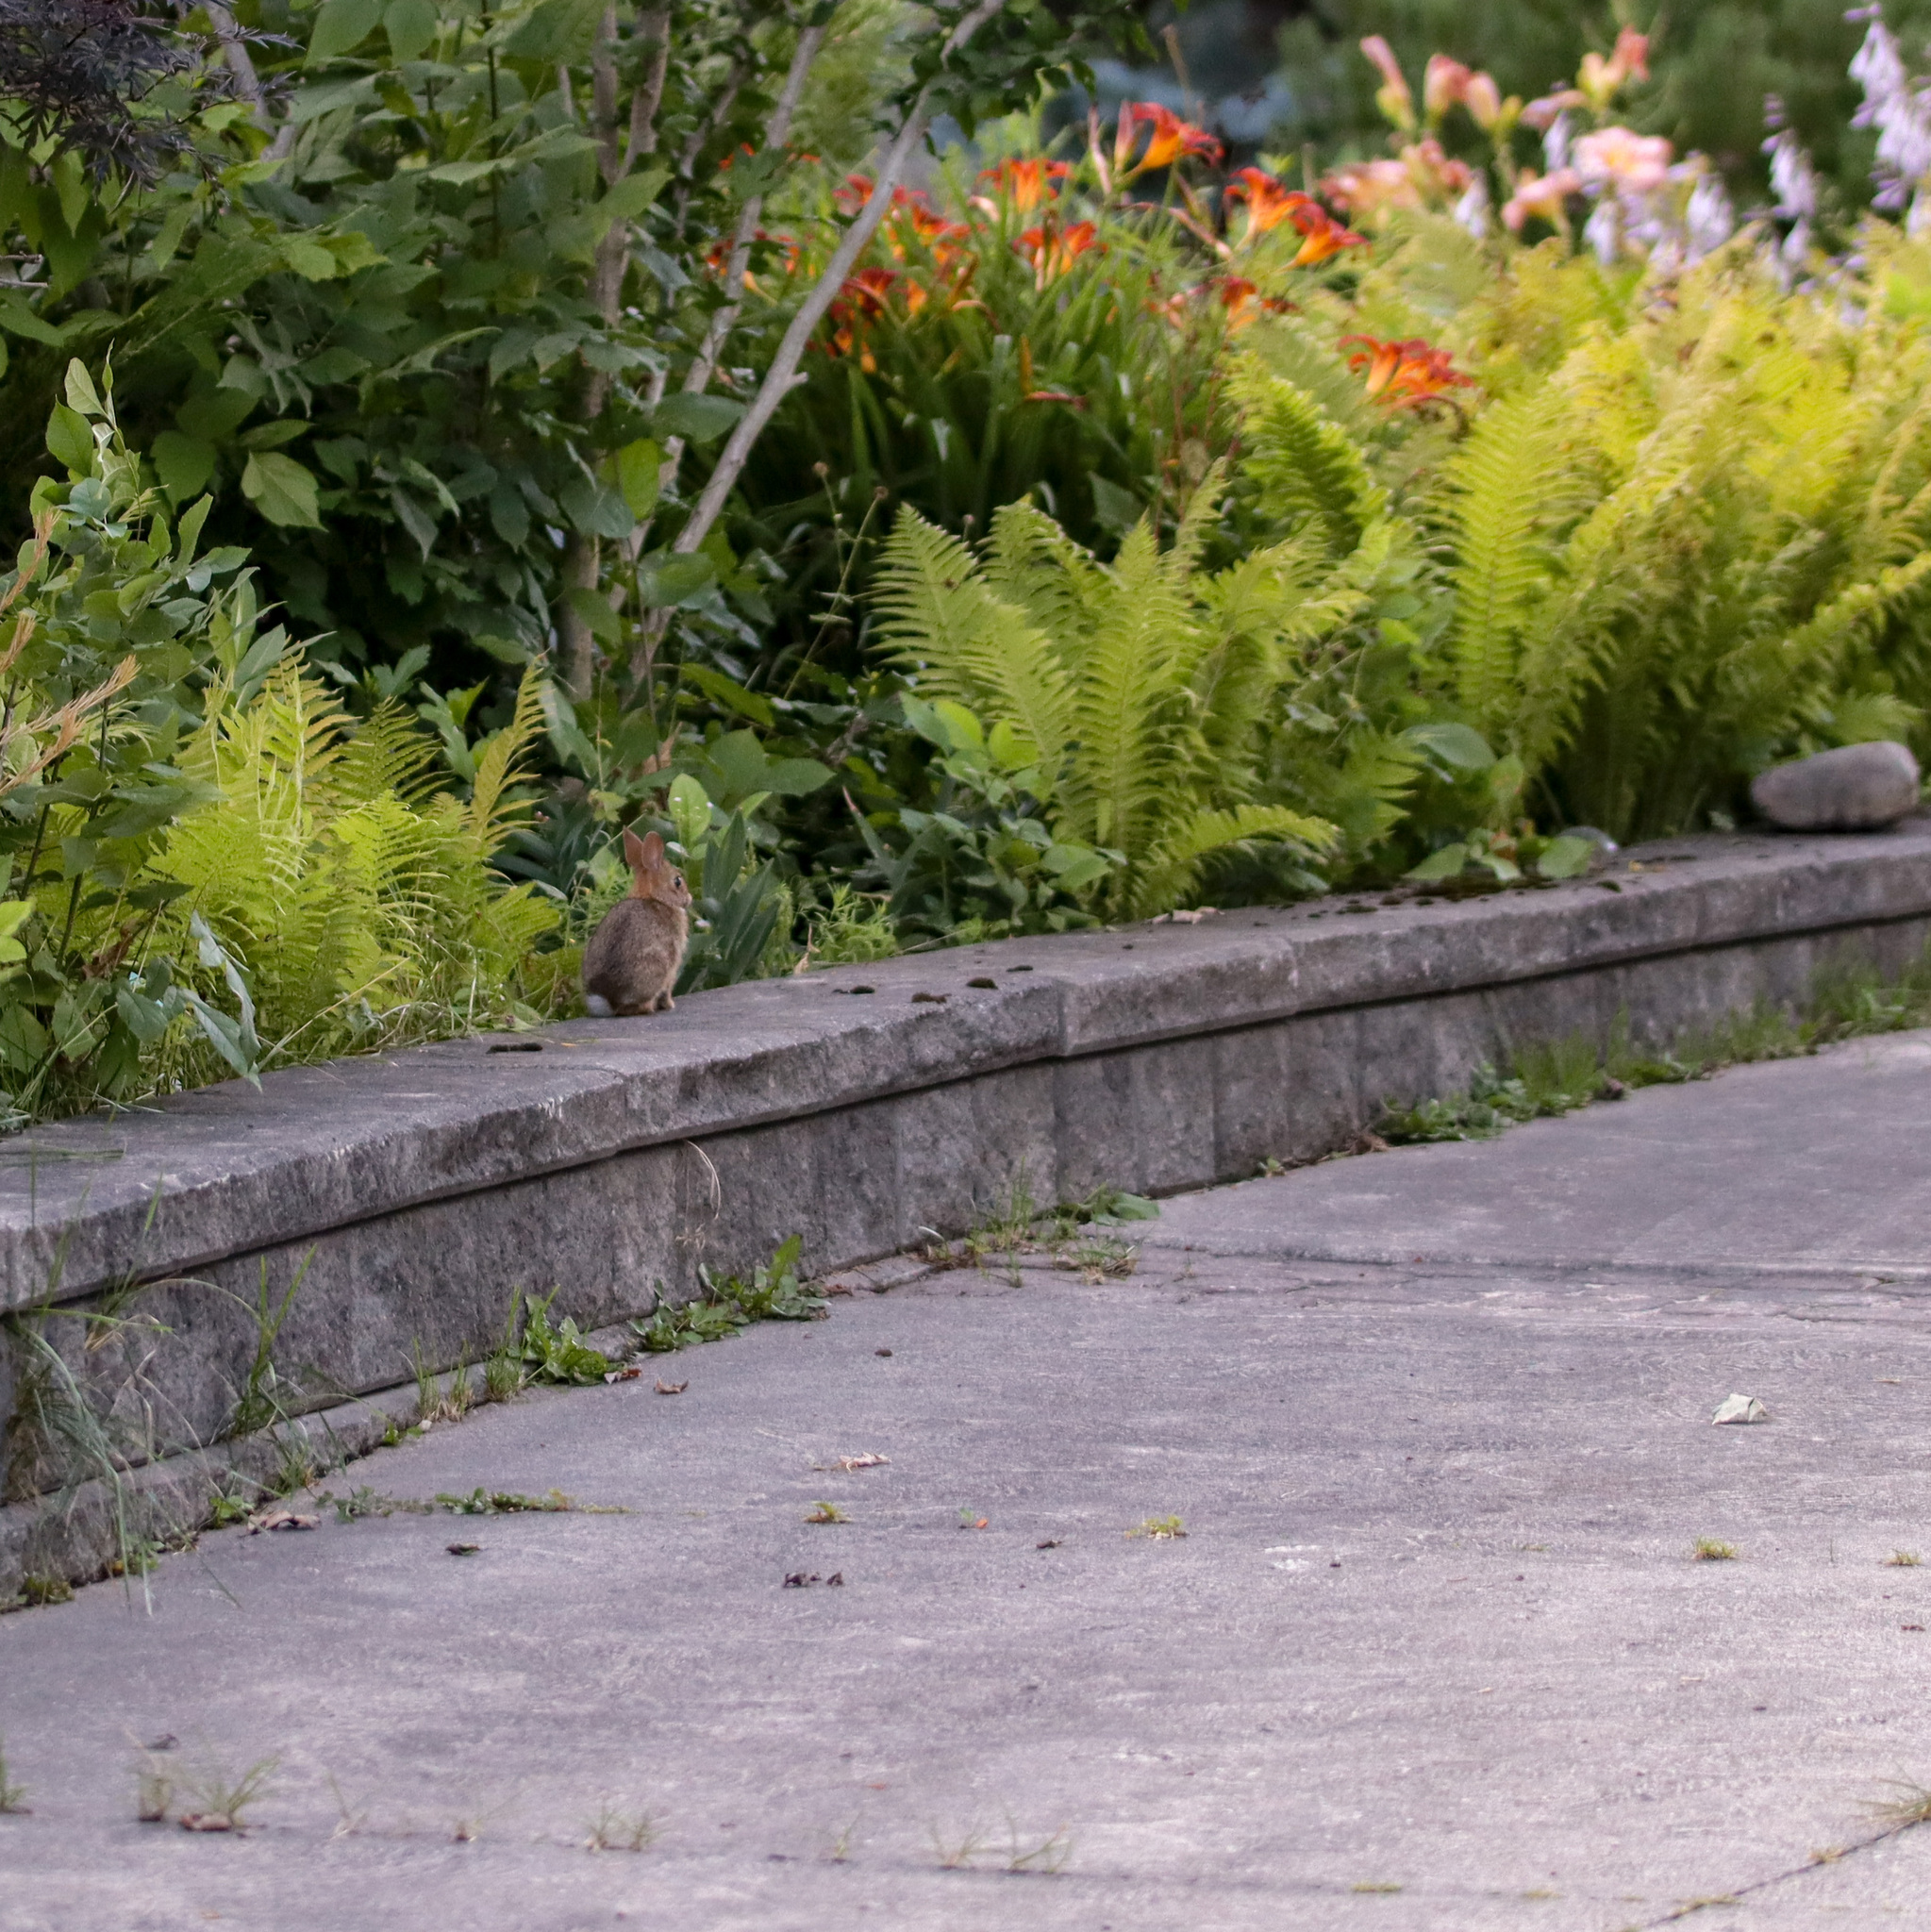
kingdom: Animalia
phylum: Chordata
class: Mammalia
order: Lagomorpha
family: Leporidae
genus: Sylvilagus
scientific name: Sylvilagus floridanus
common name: Eastern cottontail
